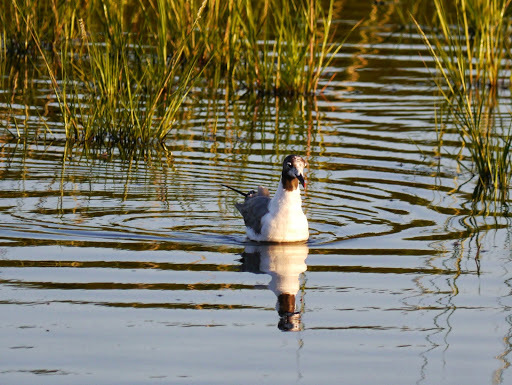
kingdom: Animalia
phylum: Chordata
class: Aves
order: Charadriiformes
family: Laridae
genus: Leucophaeus
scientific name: Leucophaeus atricilla
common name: Laughing gull
